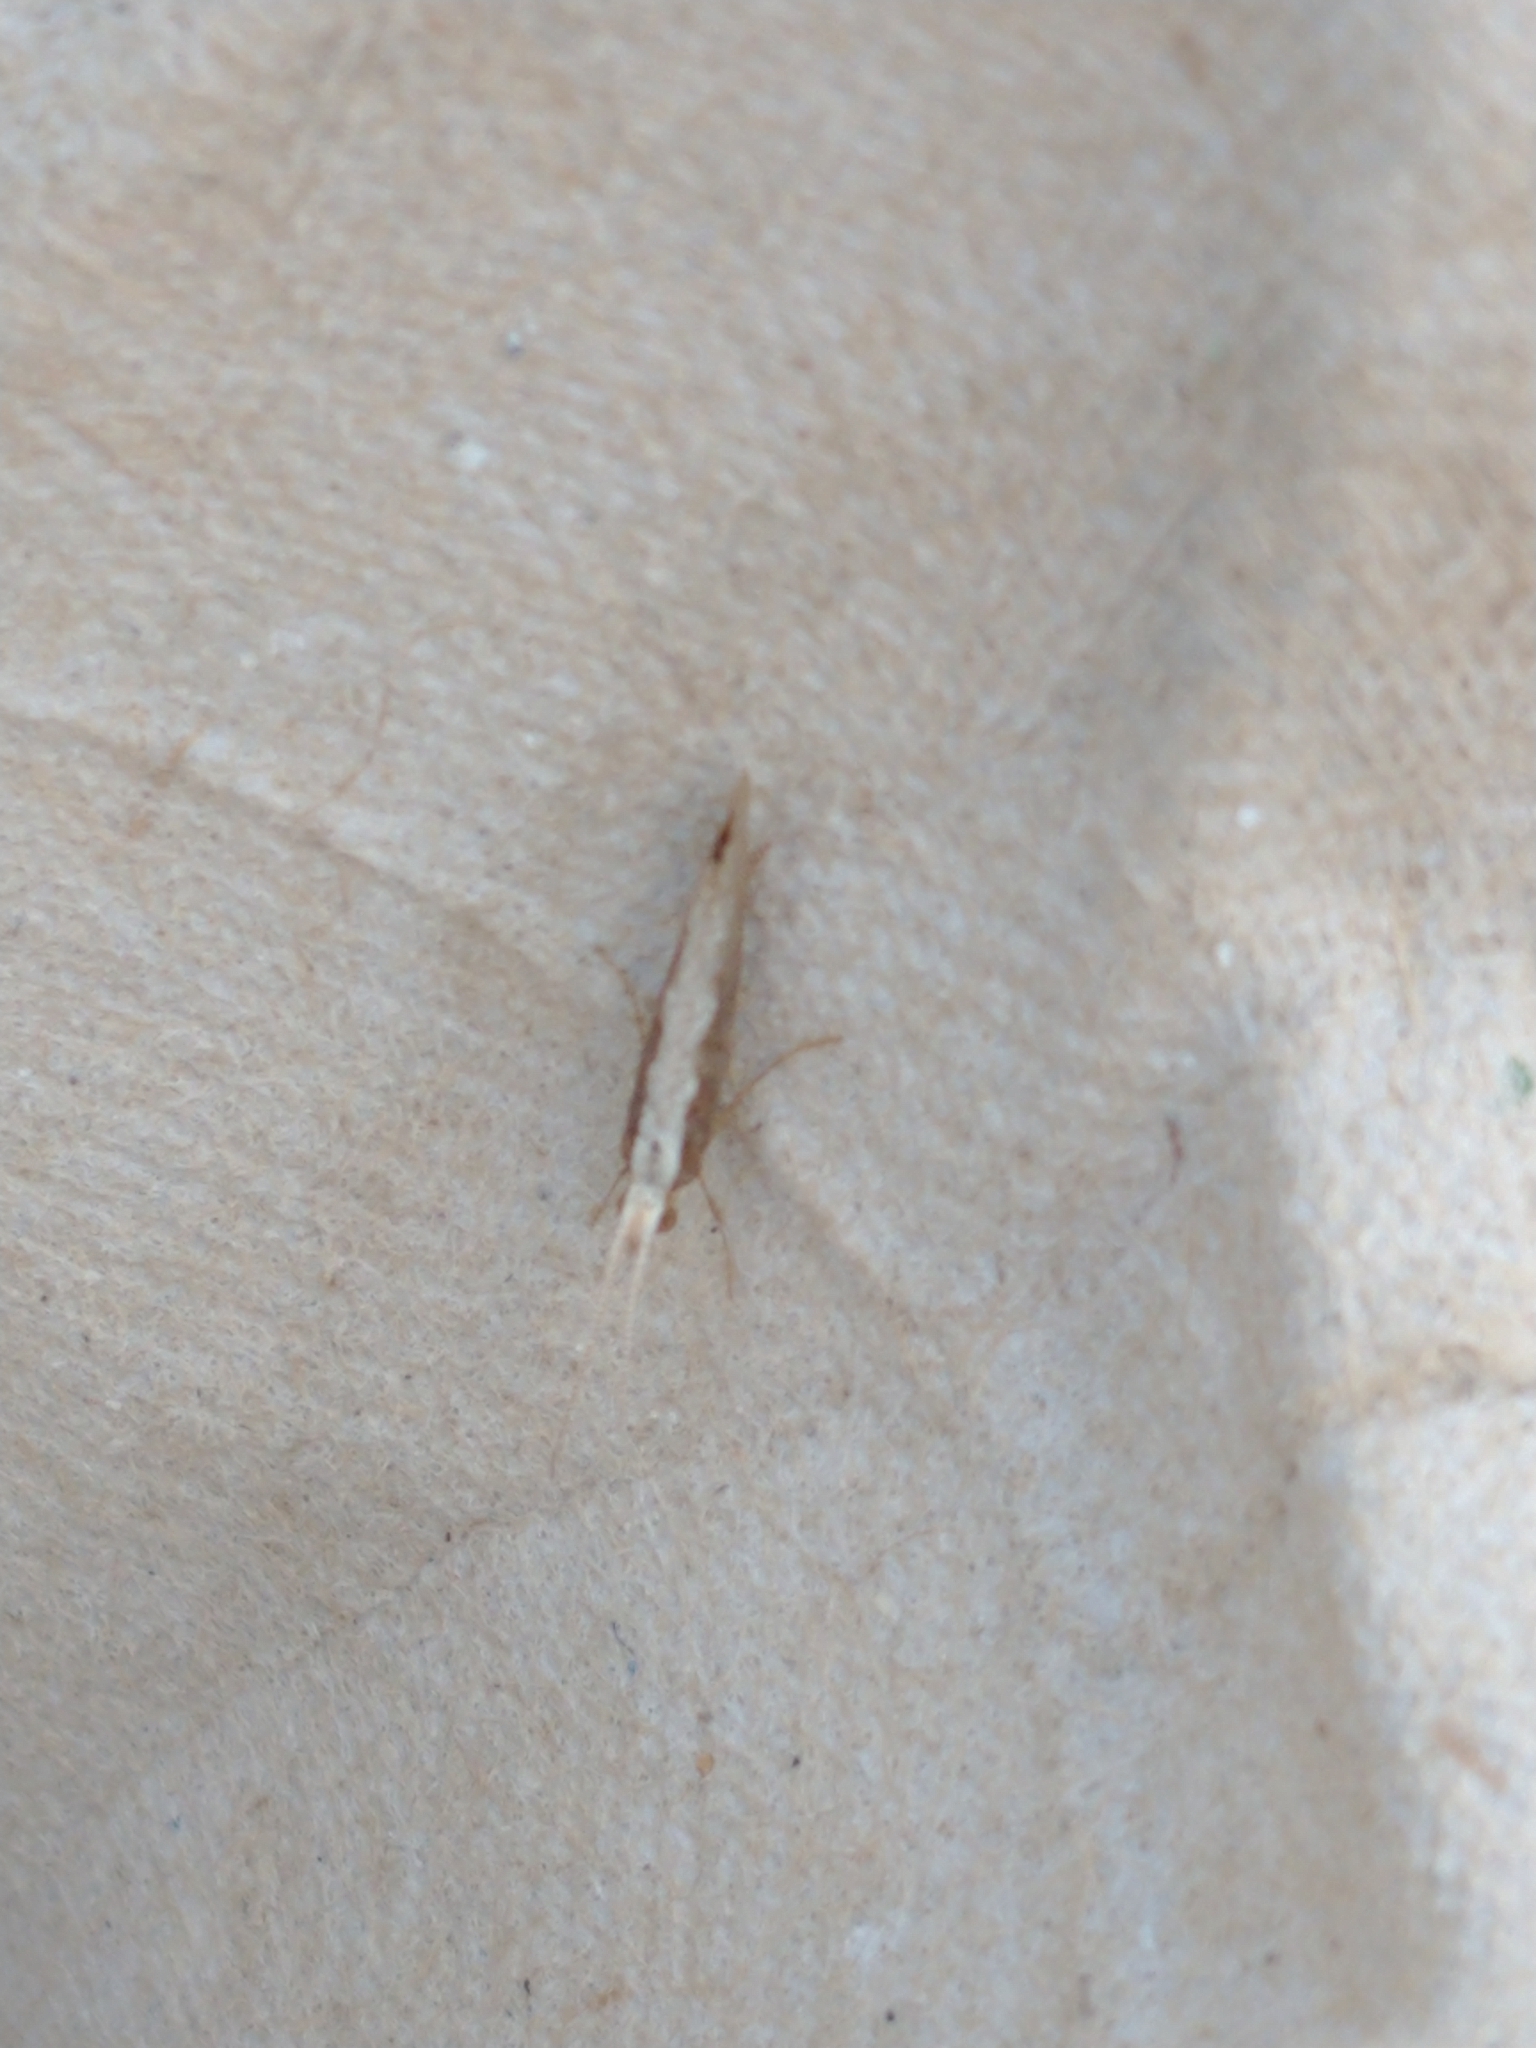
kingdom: Animalia
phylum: Arthropoda
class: Insecta
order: Lepidoptera
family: Plutellidae
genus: Plutella
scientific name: Plutella xylostella
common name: Diamond-back moth
